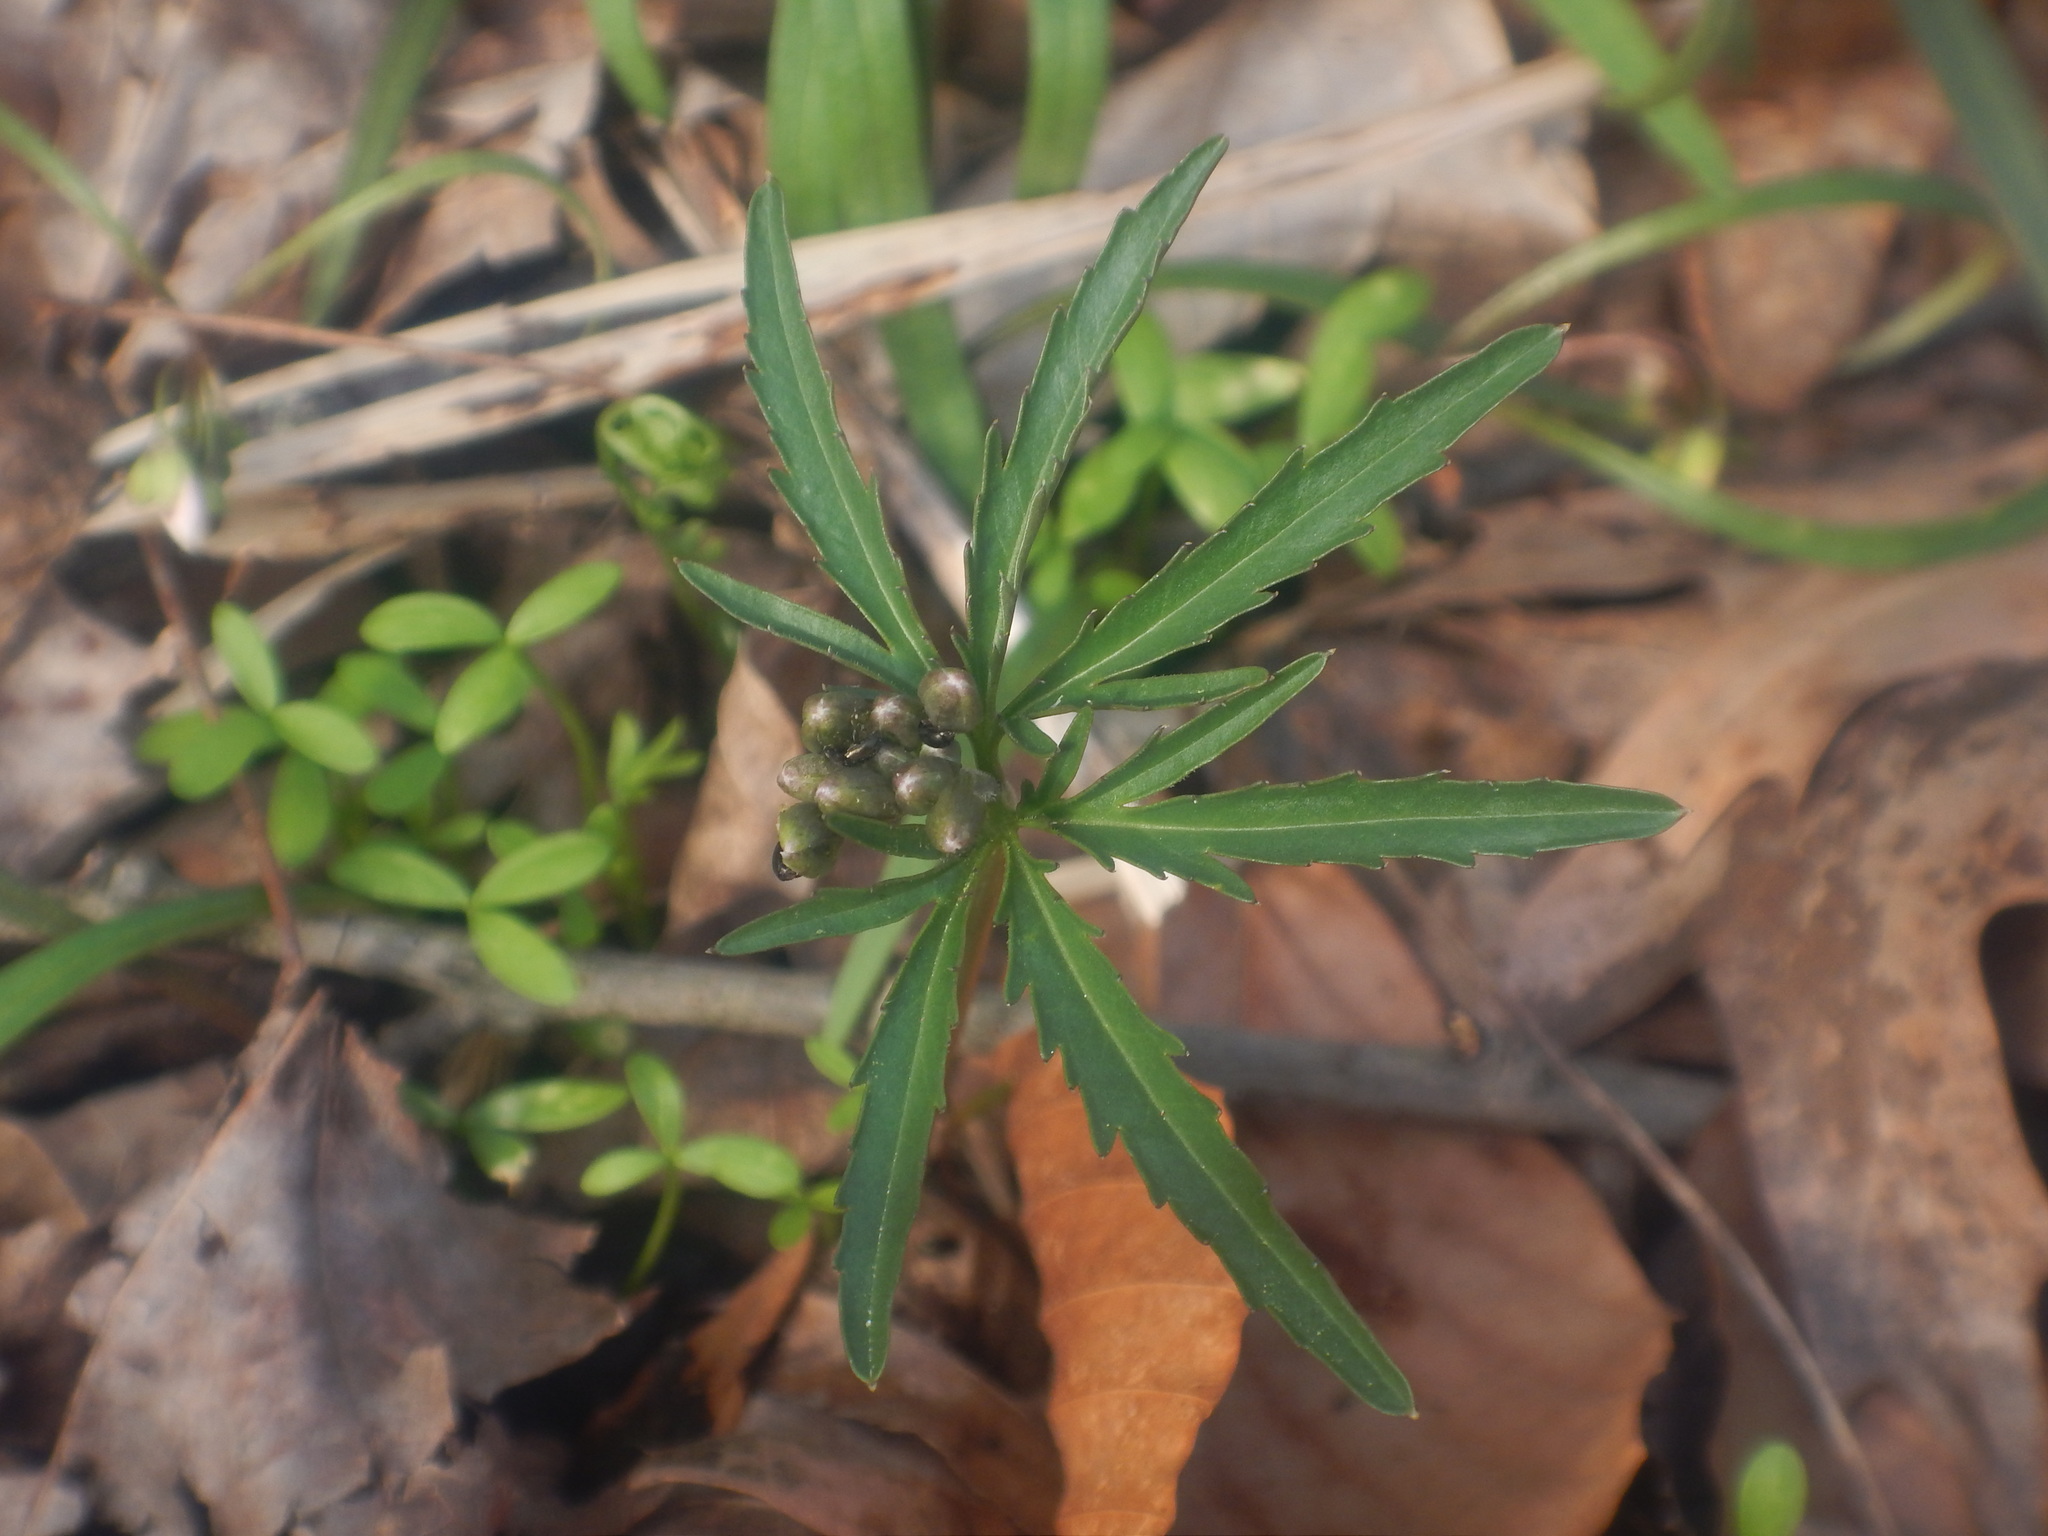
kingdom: Plantae
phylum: Tracheophyta
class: Magnoliopsida
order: Brassicales
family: Brassicaceae
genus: Cardamine
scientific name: Cardamine concatenata
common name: Cut-leaf toothcup
